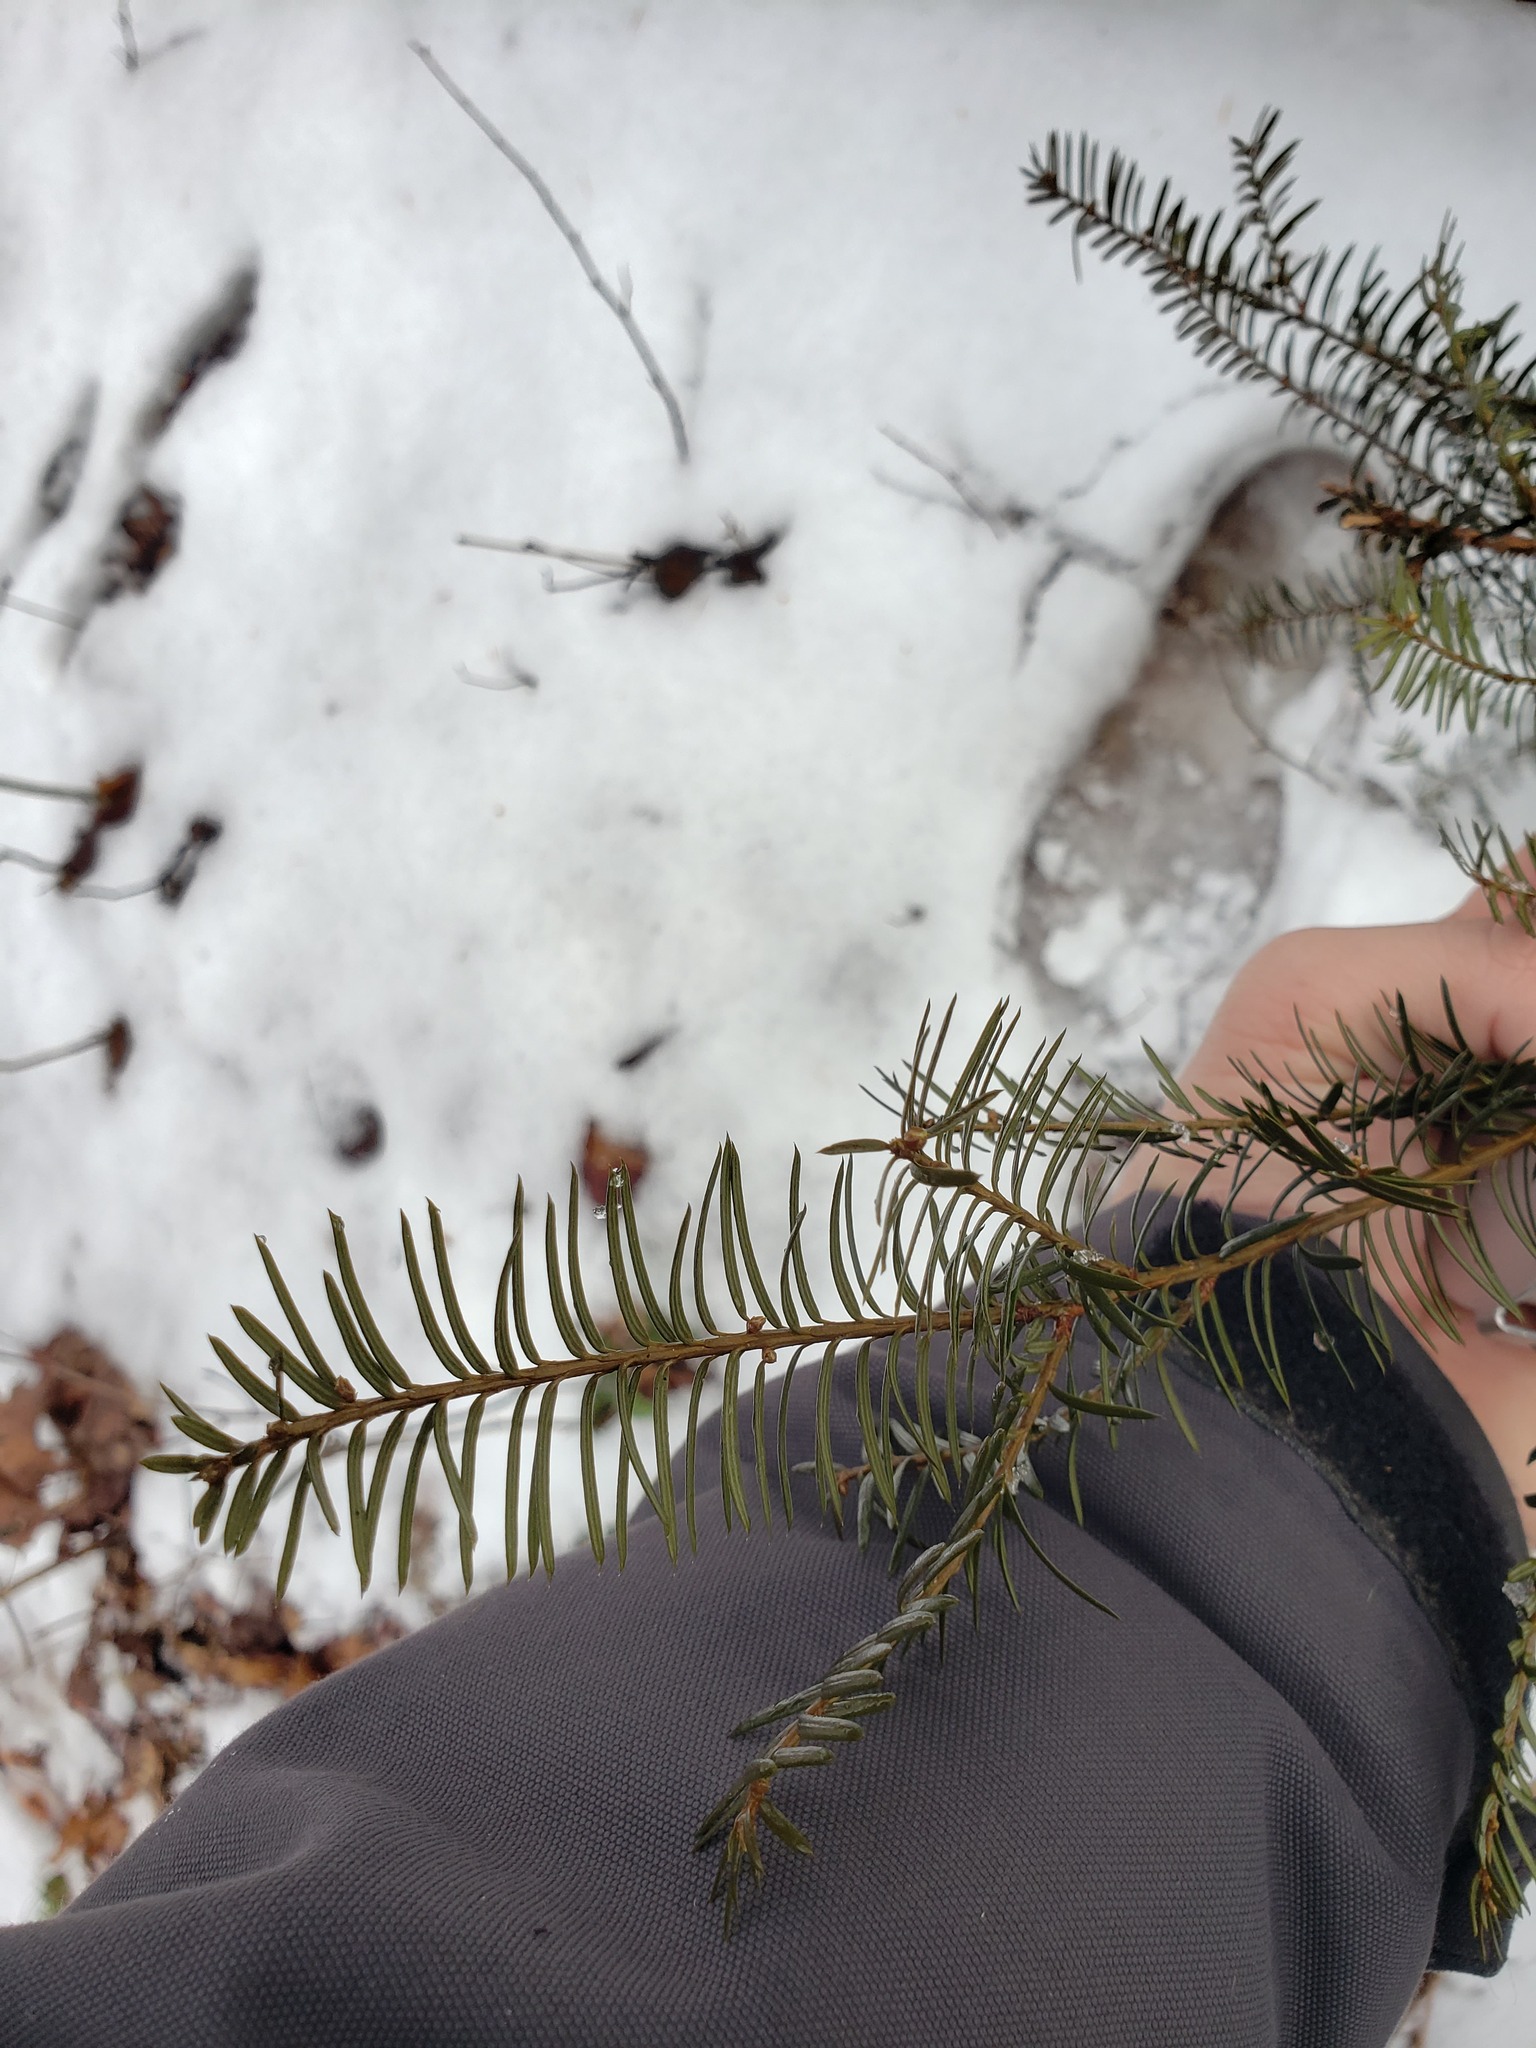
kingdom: Plantae
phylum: Tracheophyta
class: Pinopsida
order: Pinales
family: Taxaceae
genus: Taxus
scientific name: Taxus canadensis
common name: American yew
